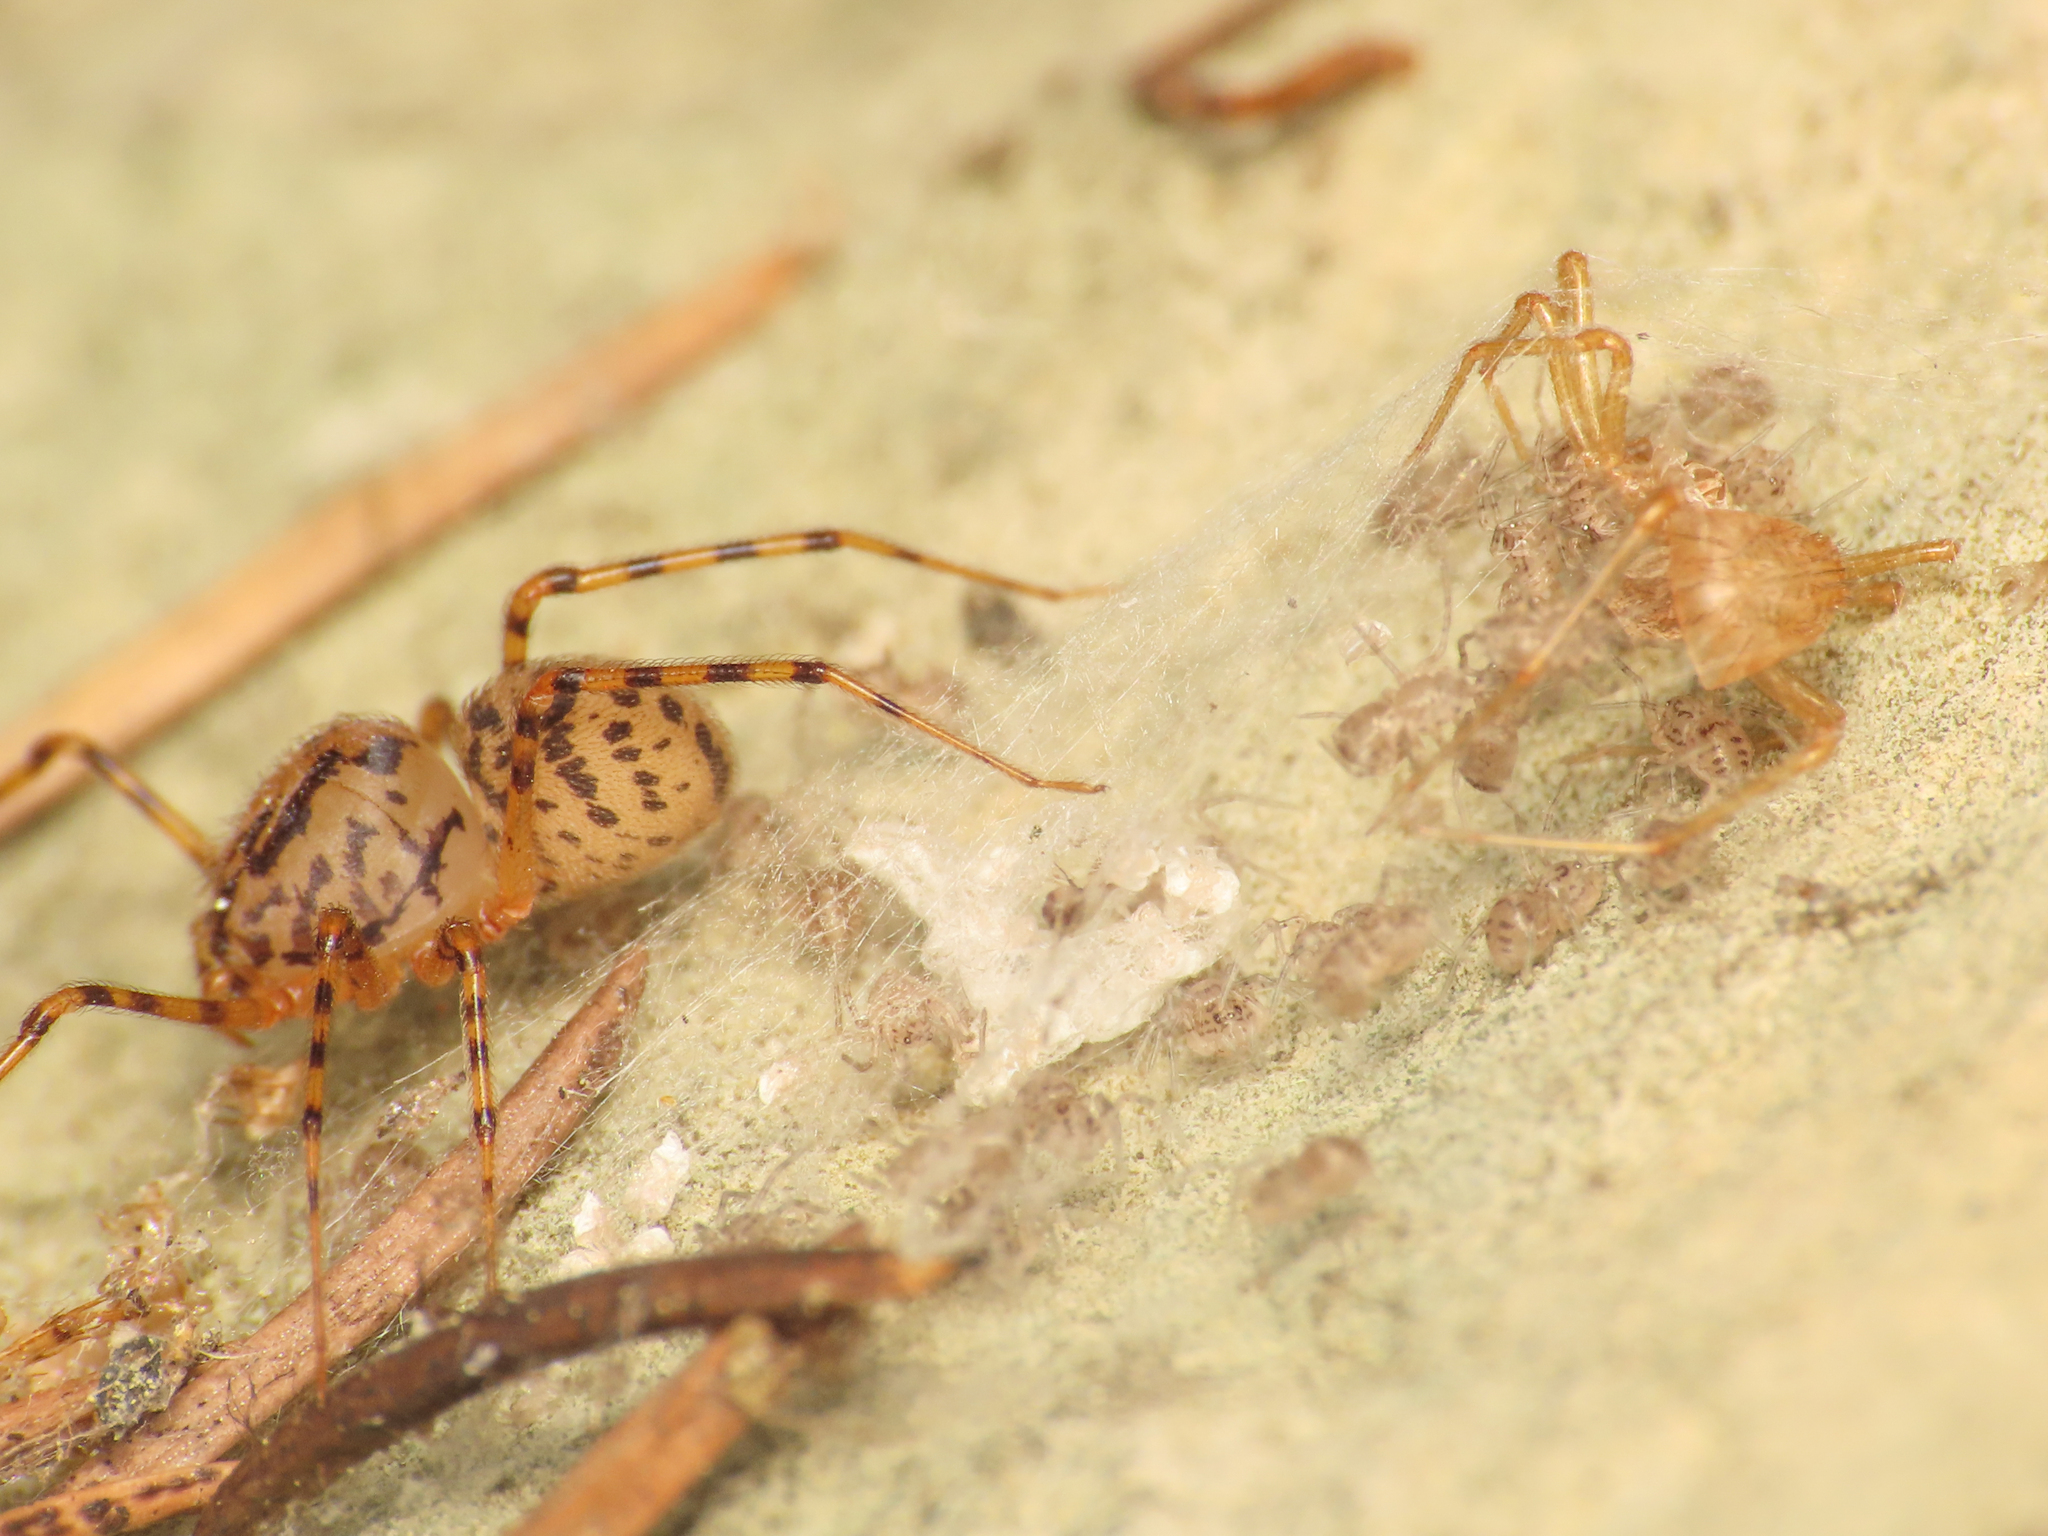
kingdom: Animalia
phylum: Arthropoda
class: Arachnida
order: Araneae
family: Scytodidae
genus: Scytodes
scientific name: Scytodes thoracica
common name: Spitting spider
